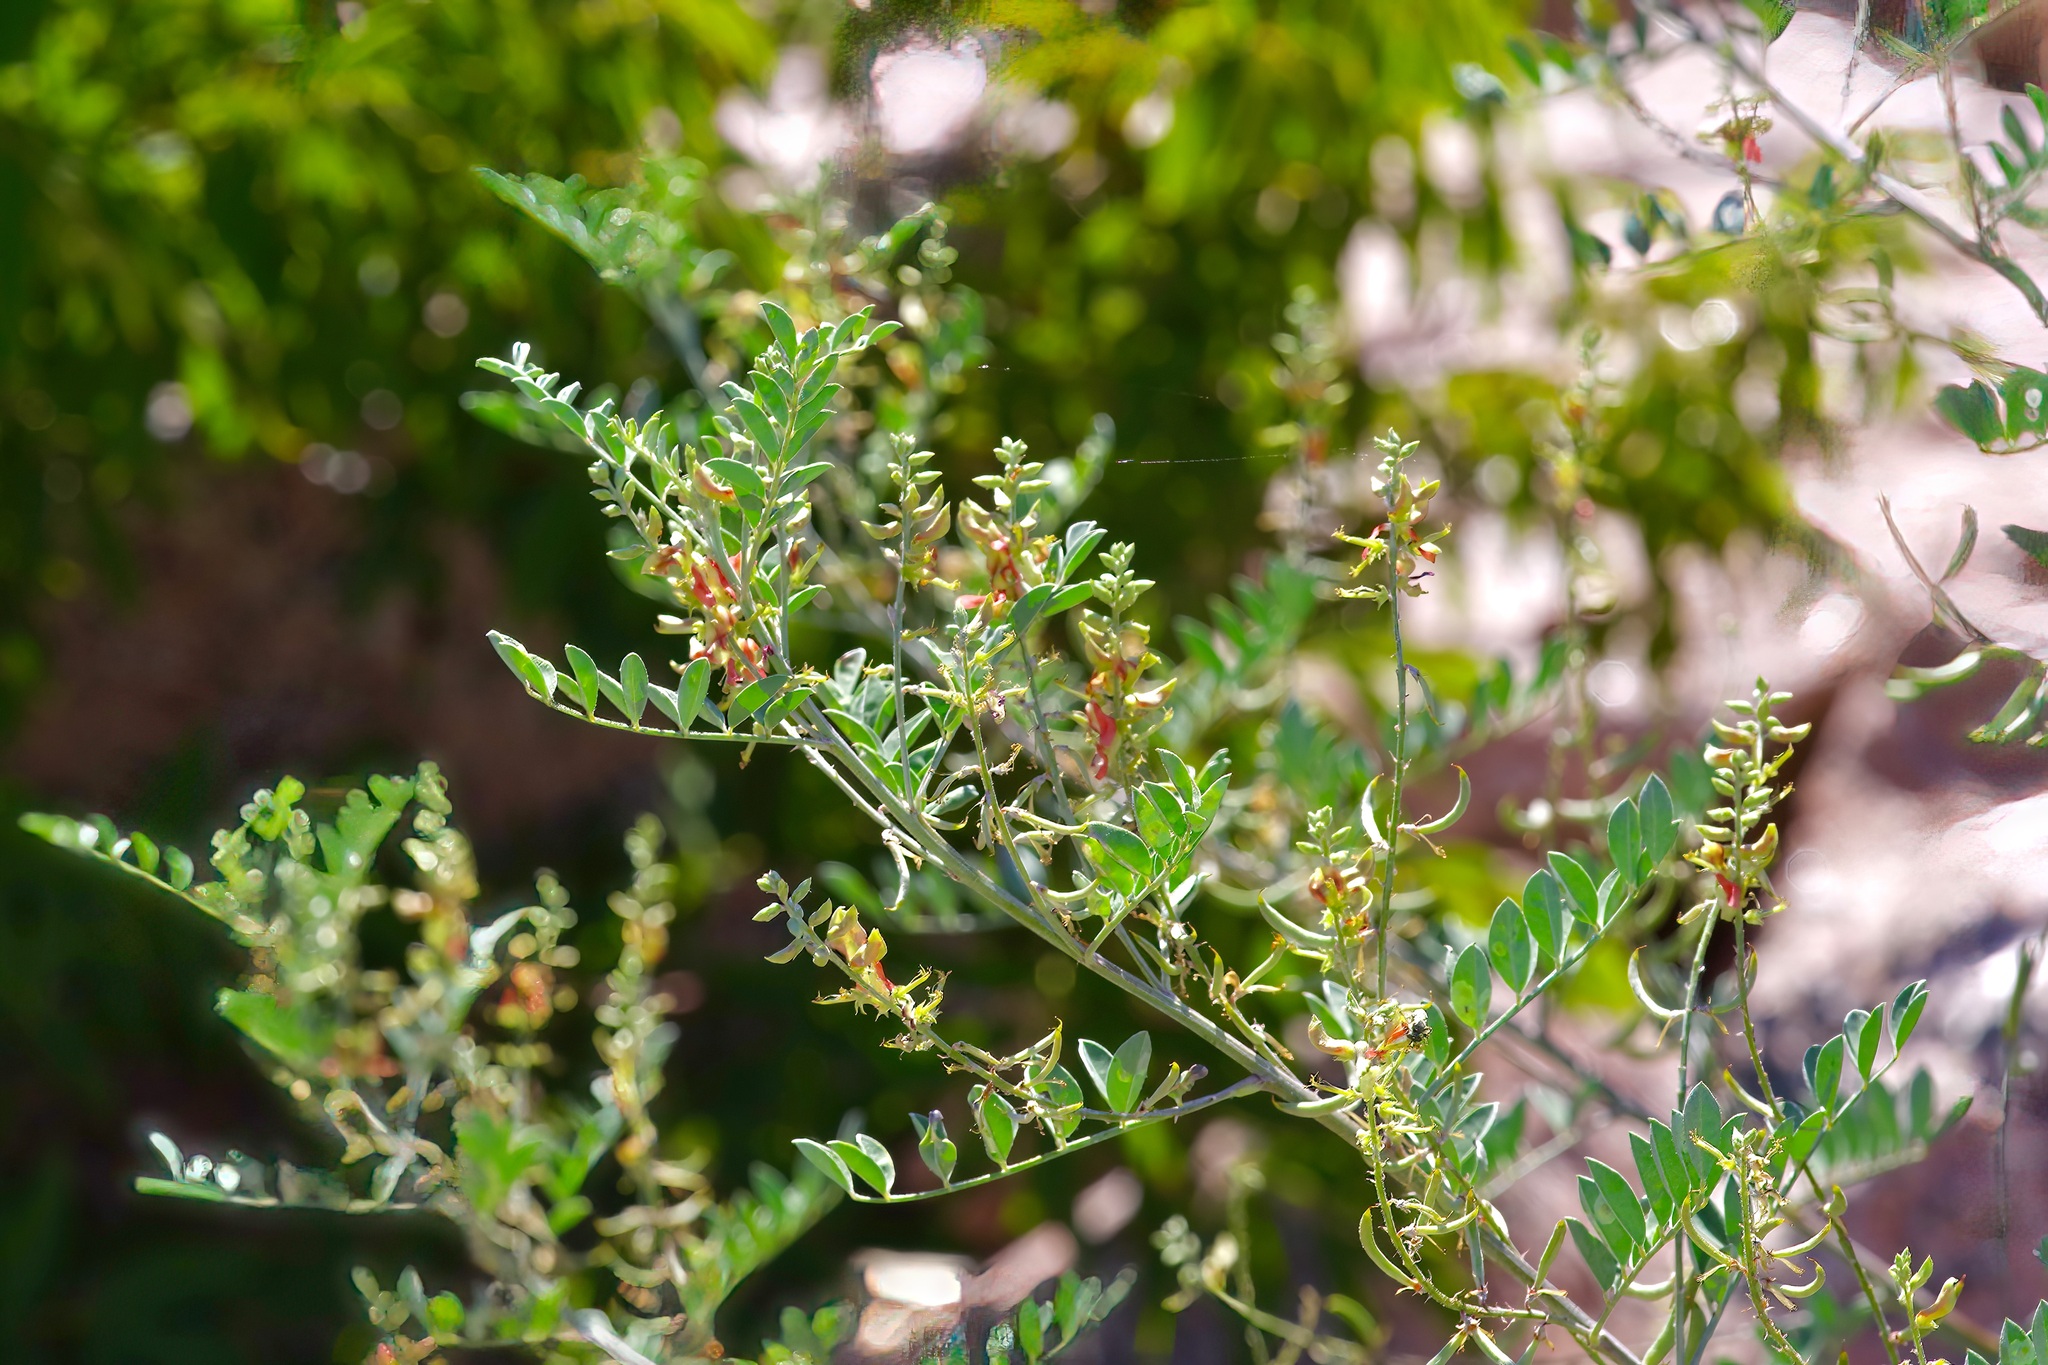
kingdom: Plantae
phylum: Tracheophyta
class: Magnoliopsida
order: Fabales
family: Fabaceae
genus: Indigofera
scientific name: Indigofera lindheimeriana
